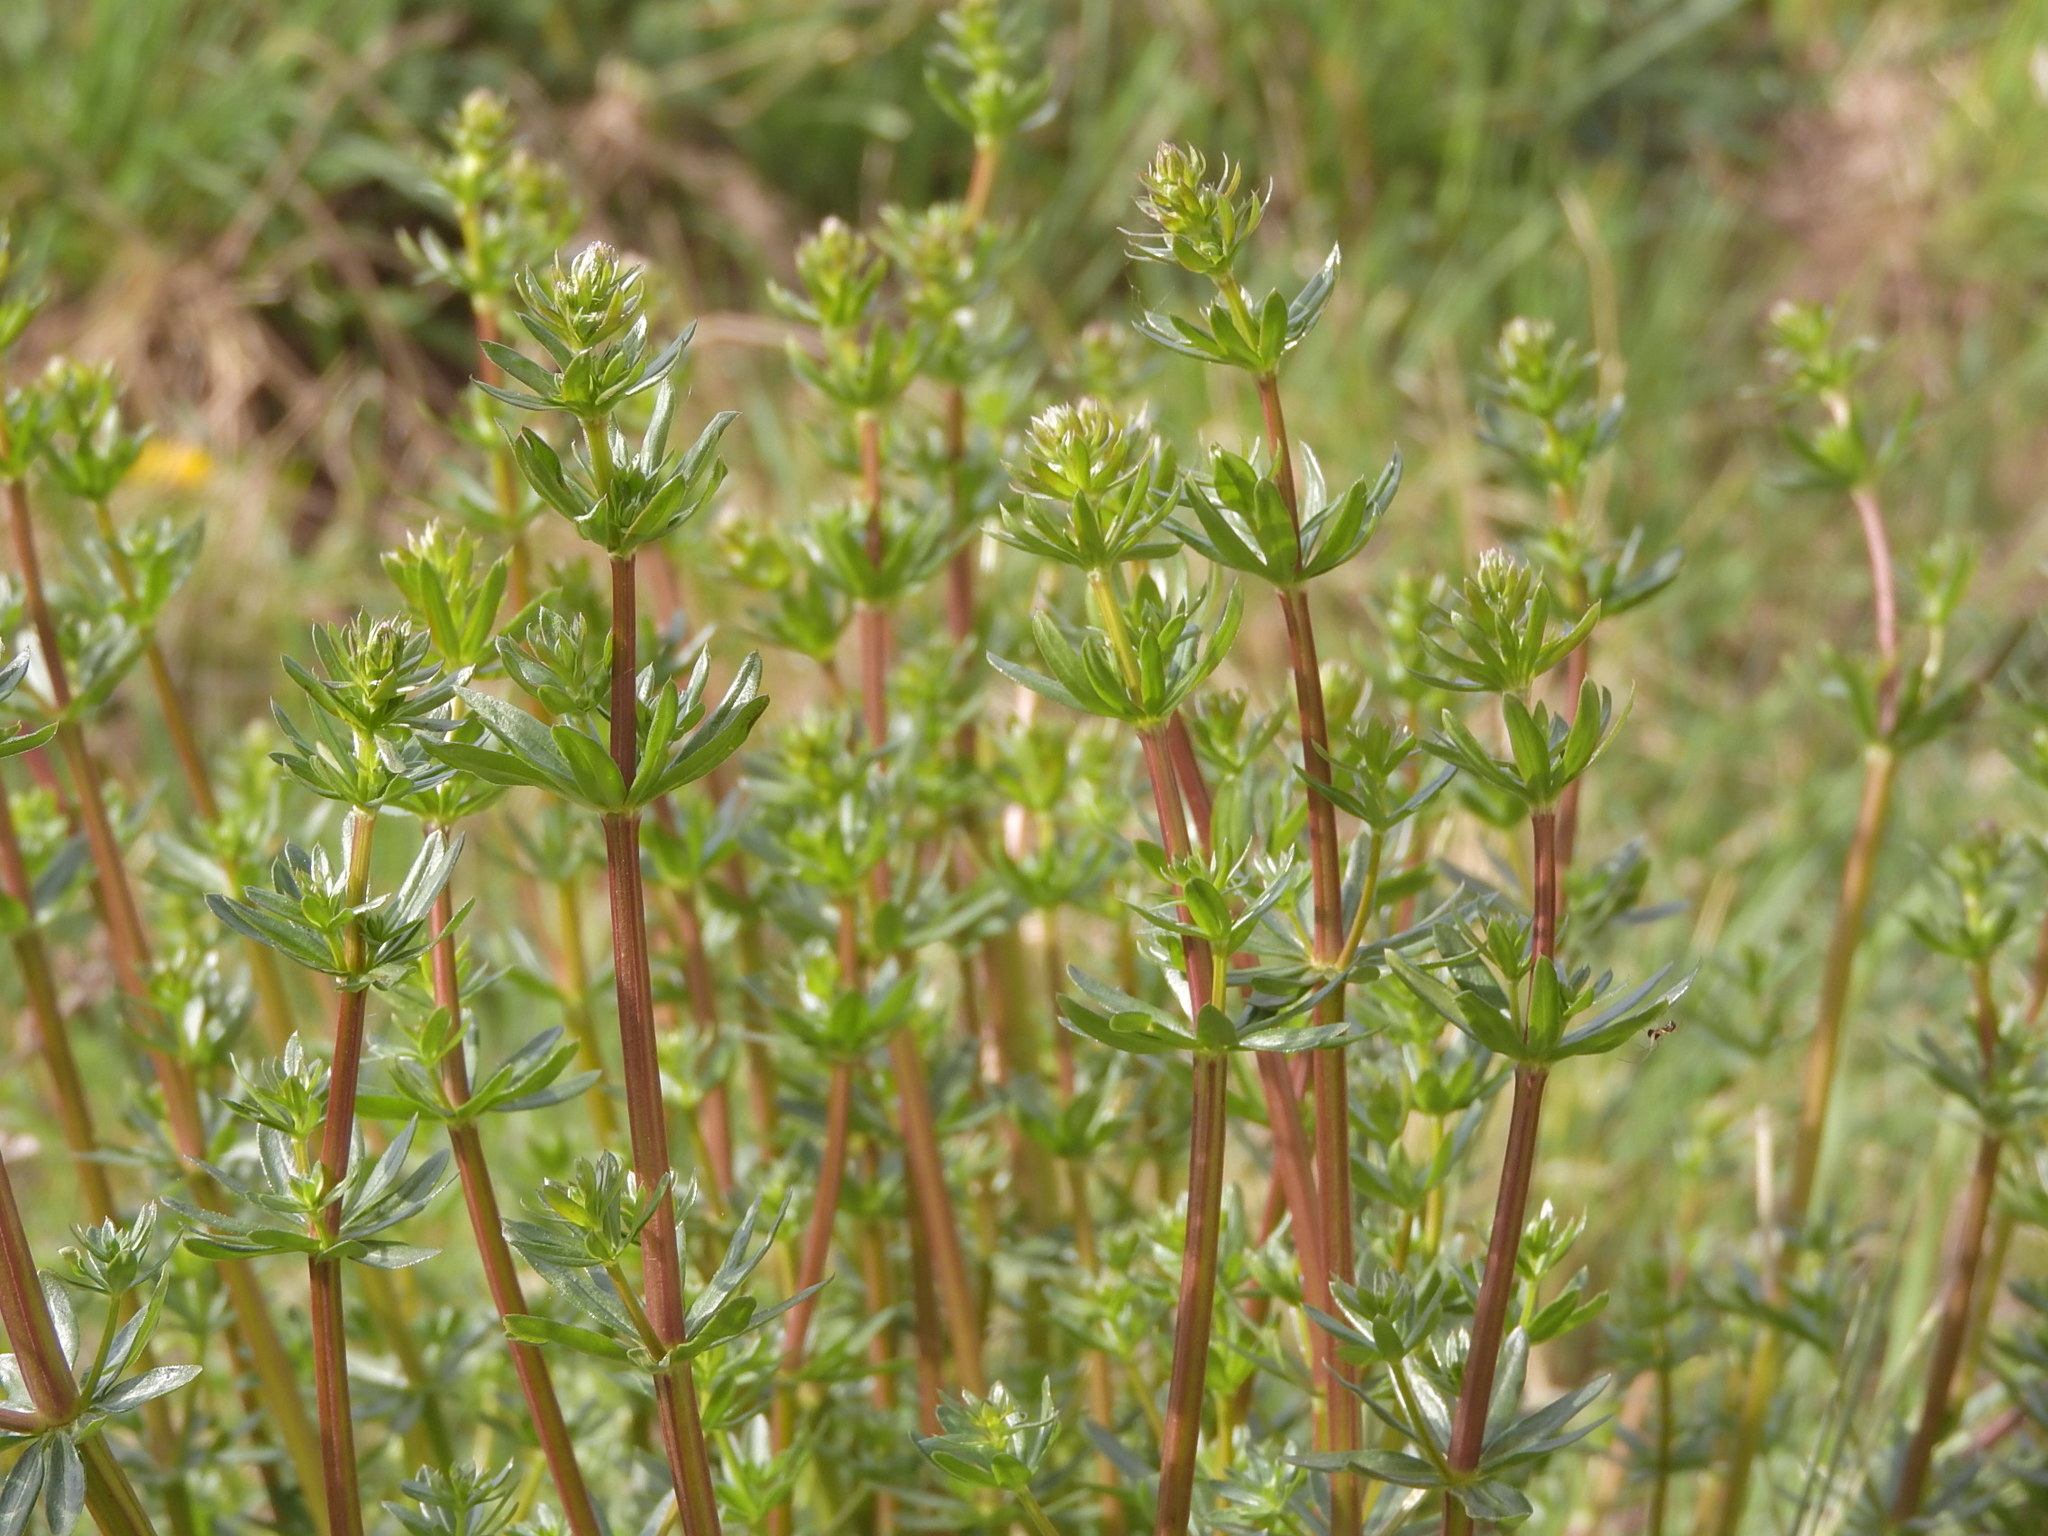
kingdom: Plantae
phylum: Tracheophyta
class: Magnoliopsida
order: Gentianales
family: Rubiaceae
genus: Galium
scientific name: Galium album
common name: White bedstraw
